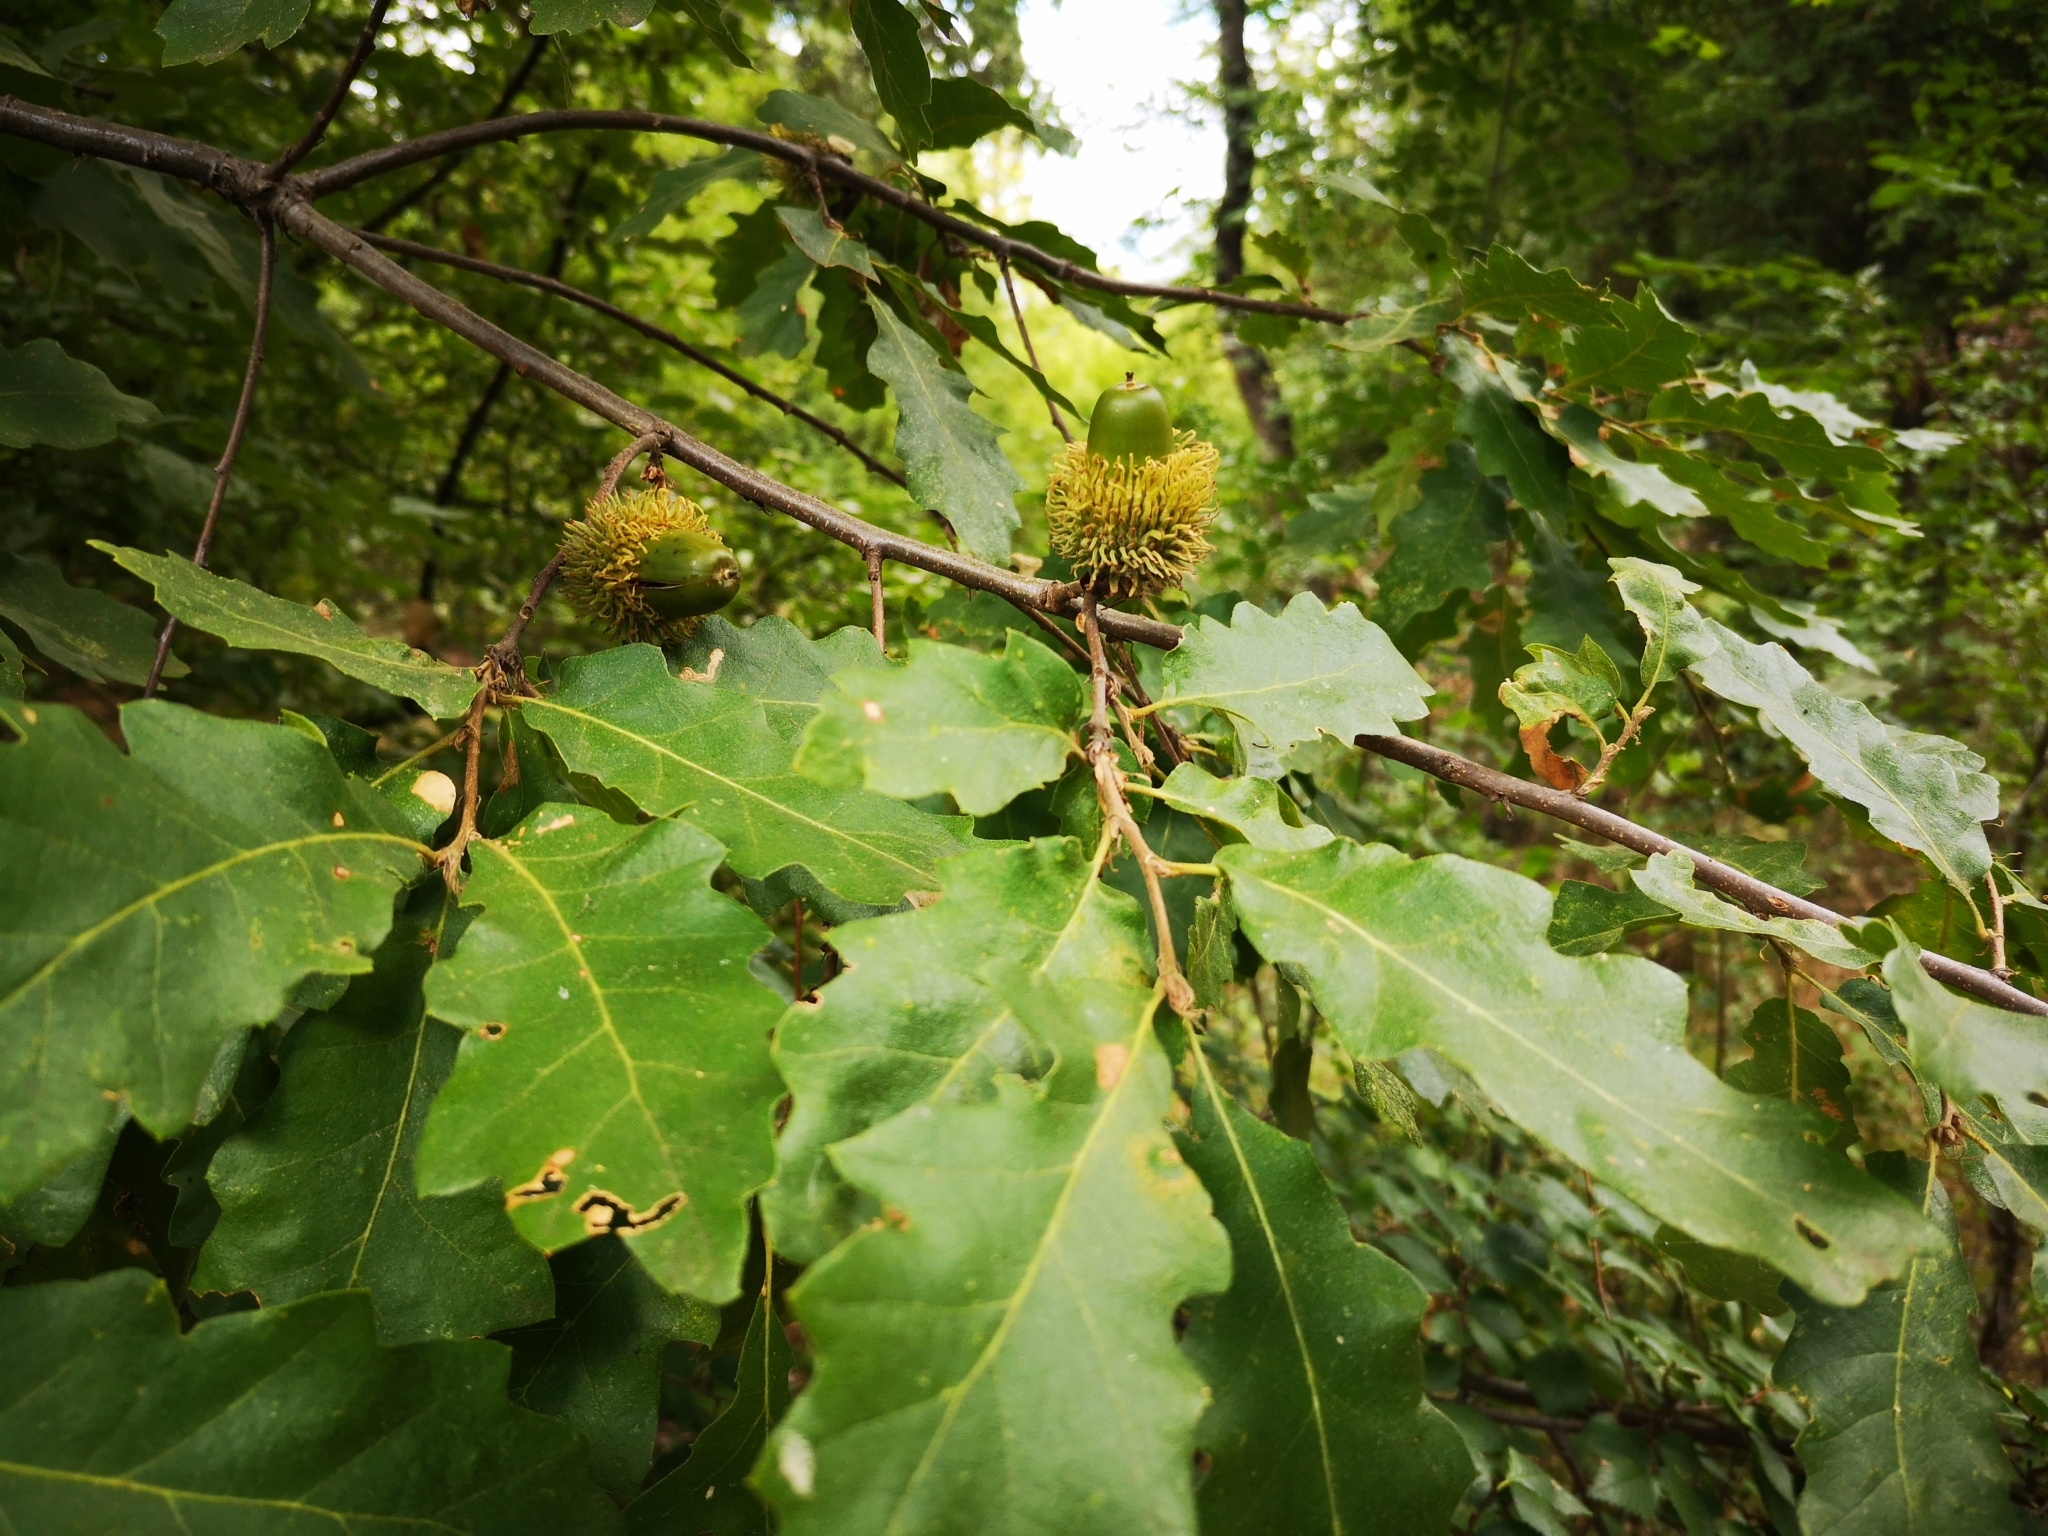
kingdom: Plantae
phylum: Tracheophyta
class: Magnoliopsida
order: Fagales
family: Fagaceae
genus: Quercus
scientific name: Quercus cerris
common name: Turkey oak
